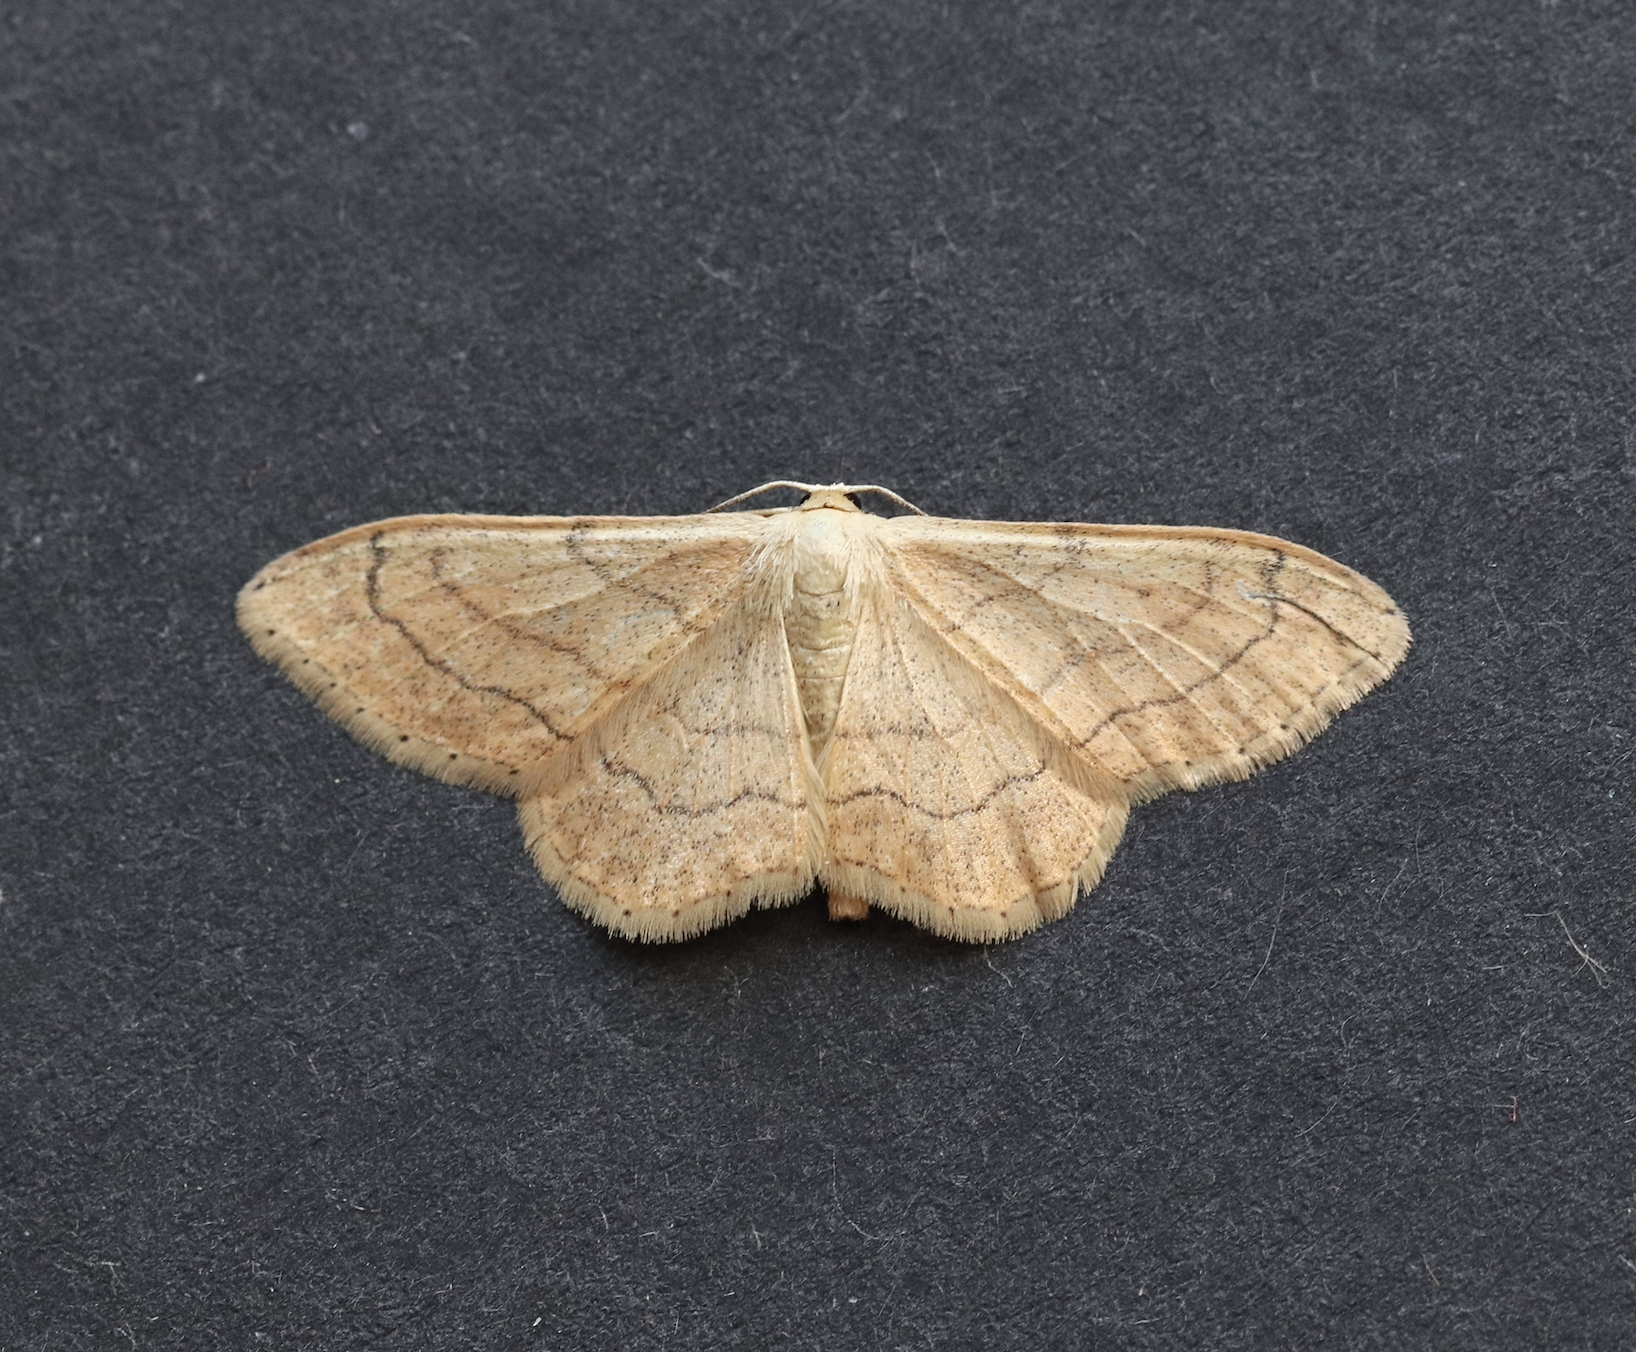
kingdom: Animalia
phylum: Arthropoda
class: Insecta
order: Lepidoptera
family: Geometridae
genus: Idaea
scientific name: Idaea aversata
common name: Riband wave
